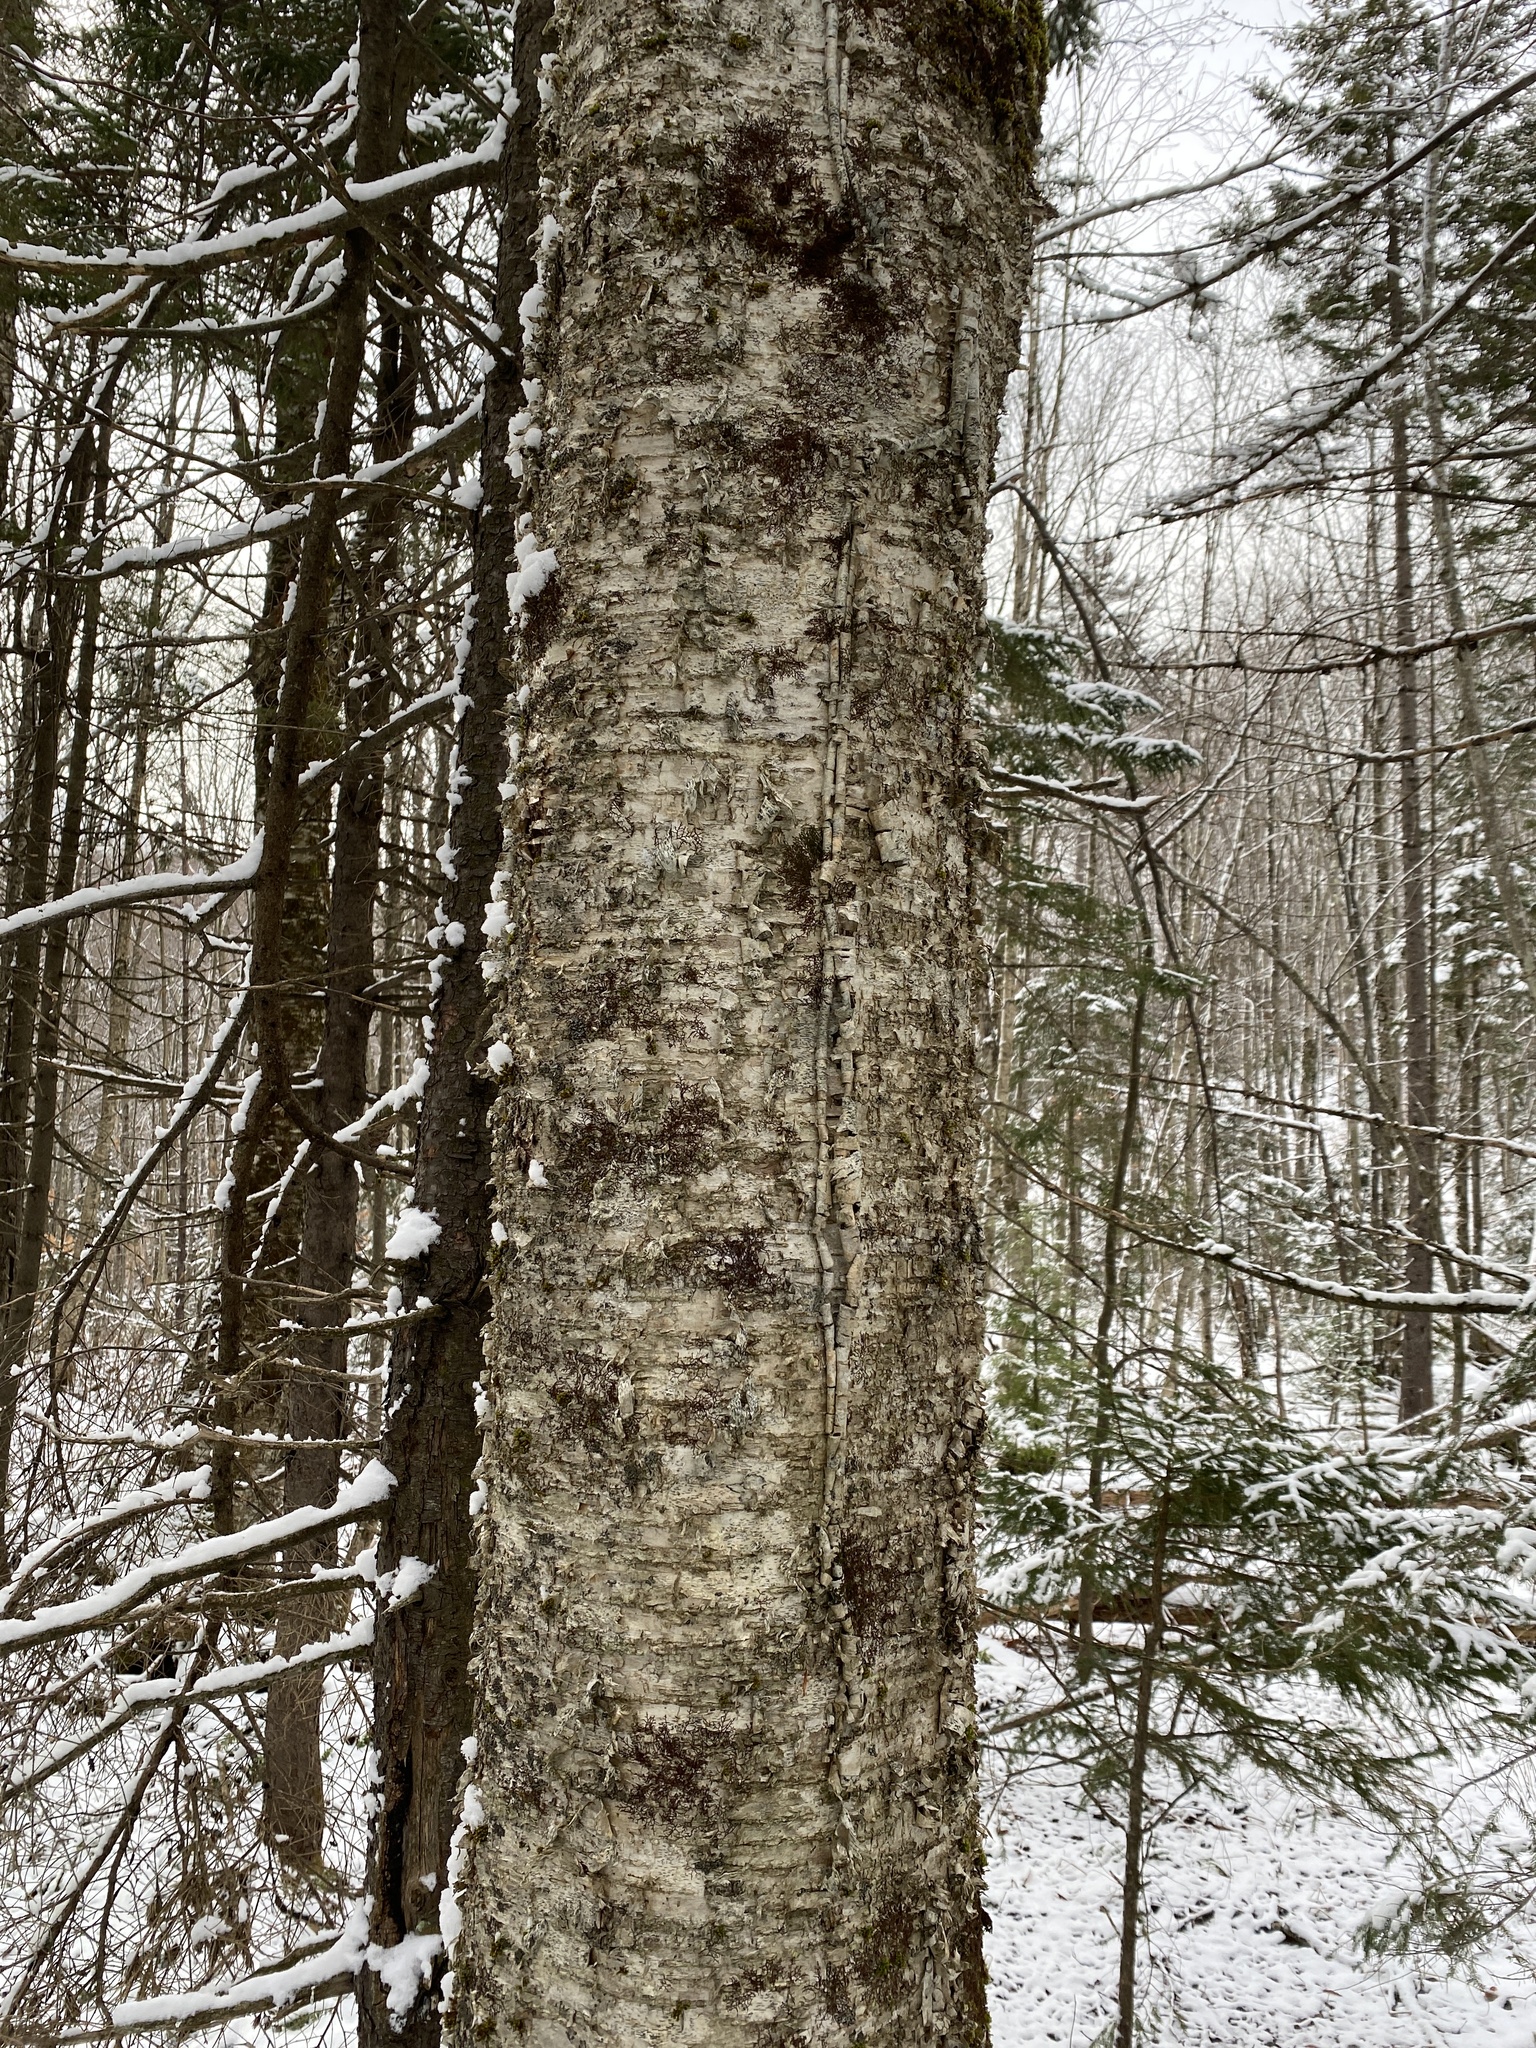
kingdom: Plantae
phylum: Tracheophyta
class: Magnoliopsida
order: Fagales
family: Betulaceae
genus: Betula
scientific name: Betula alleghaniensis
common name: Yellow birch
